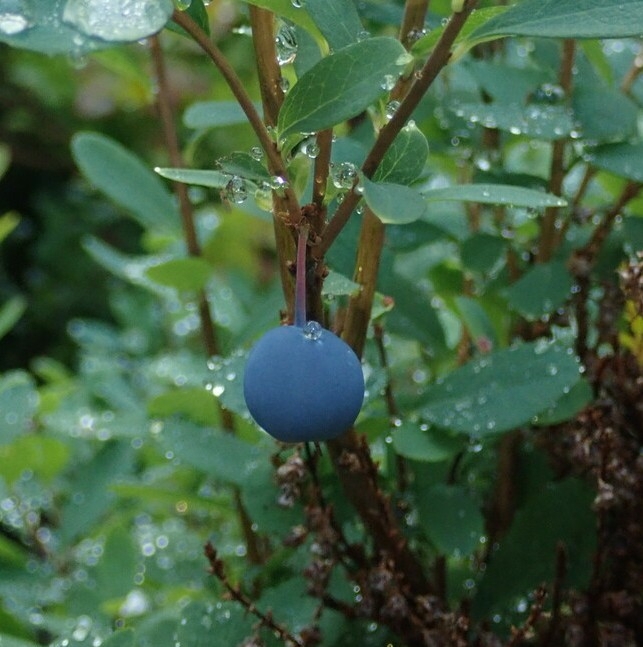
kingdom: Plantae
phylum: Tracheophyta
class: Magnoliopsida
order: Ericales
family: Ericaceae
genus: Vaccinium
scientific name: Vaccinium uliginosum
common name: Bog bilberry
